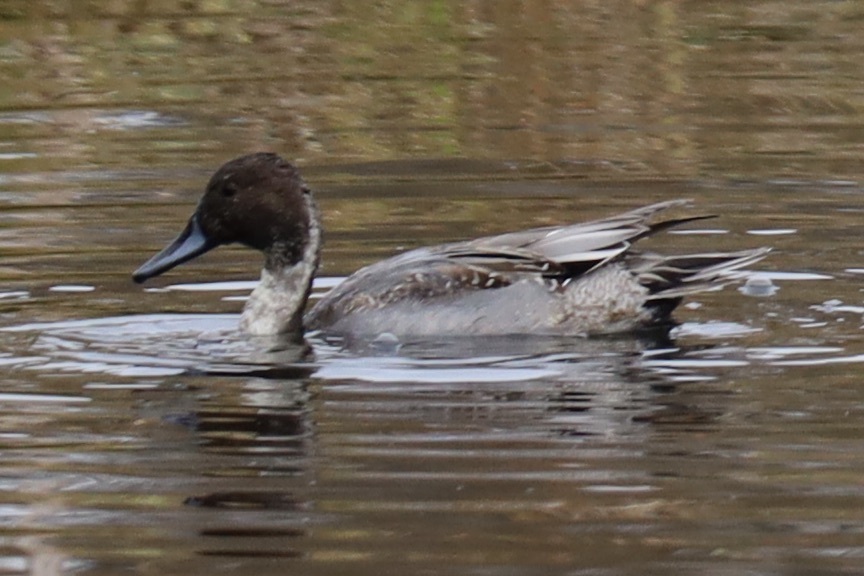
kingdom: Animalia
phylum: Chordata
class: Aves
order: Anseriformes
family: Anatidae
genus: Anas
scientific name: Anas acuta
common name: Northern pintail
